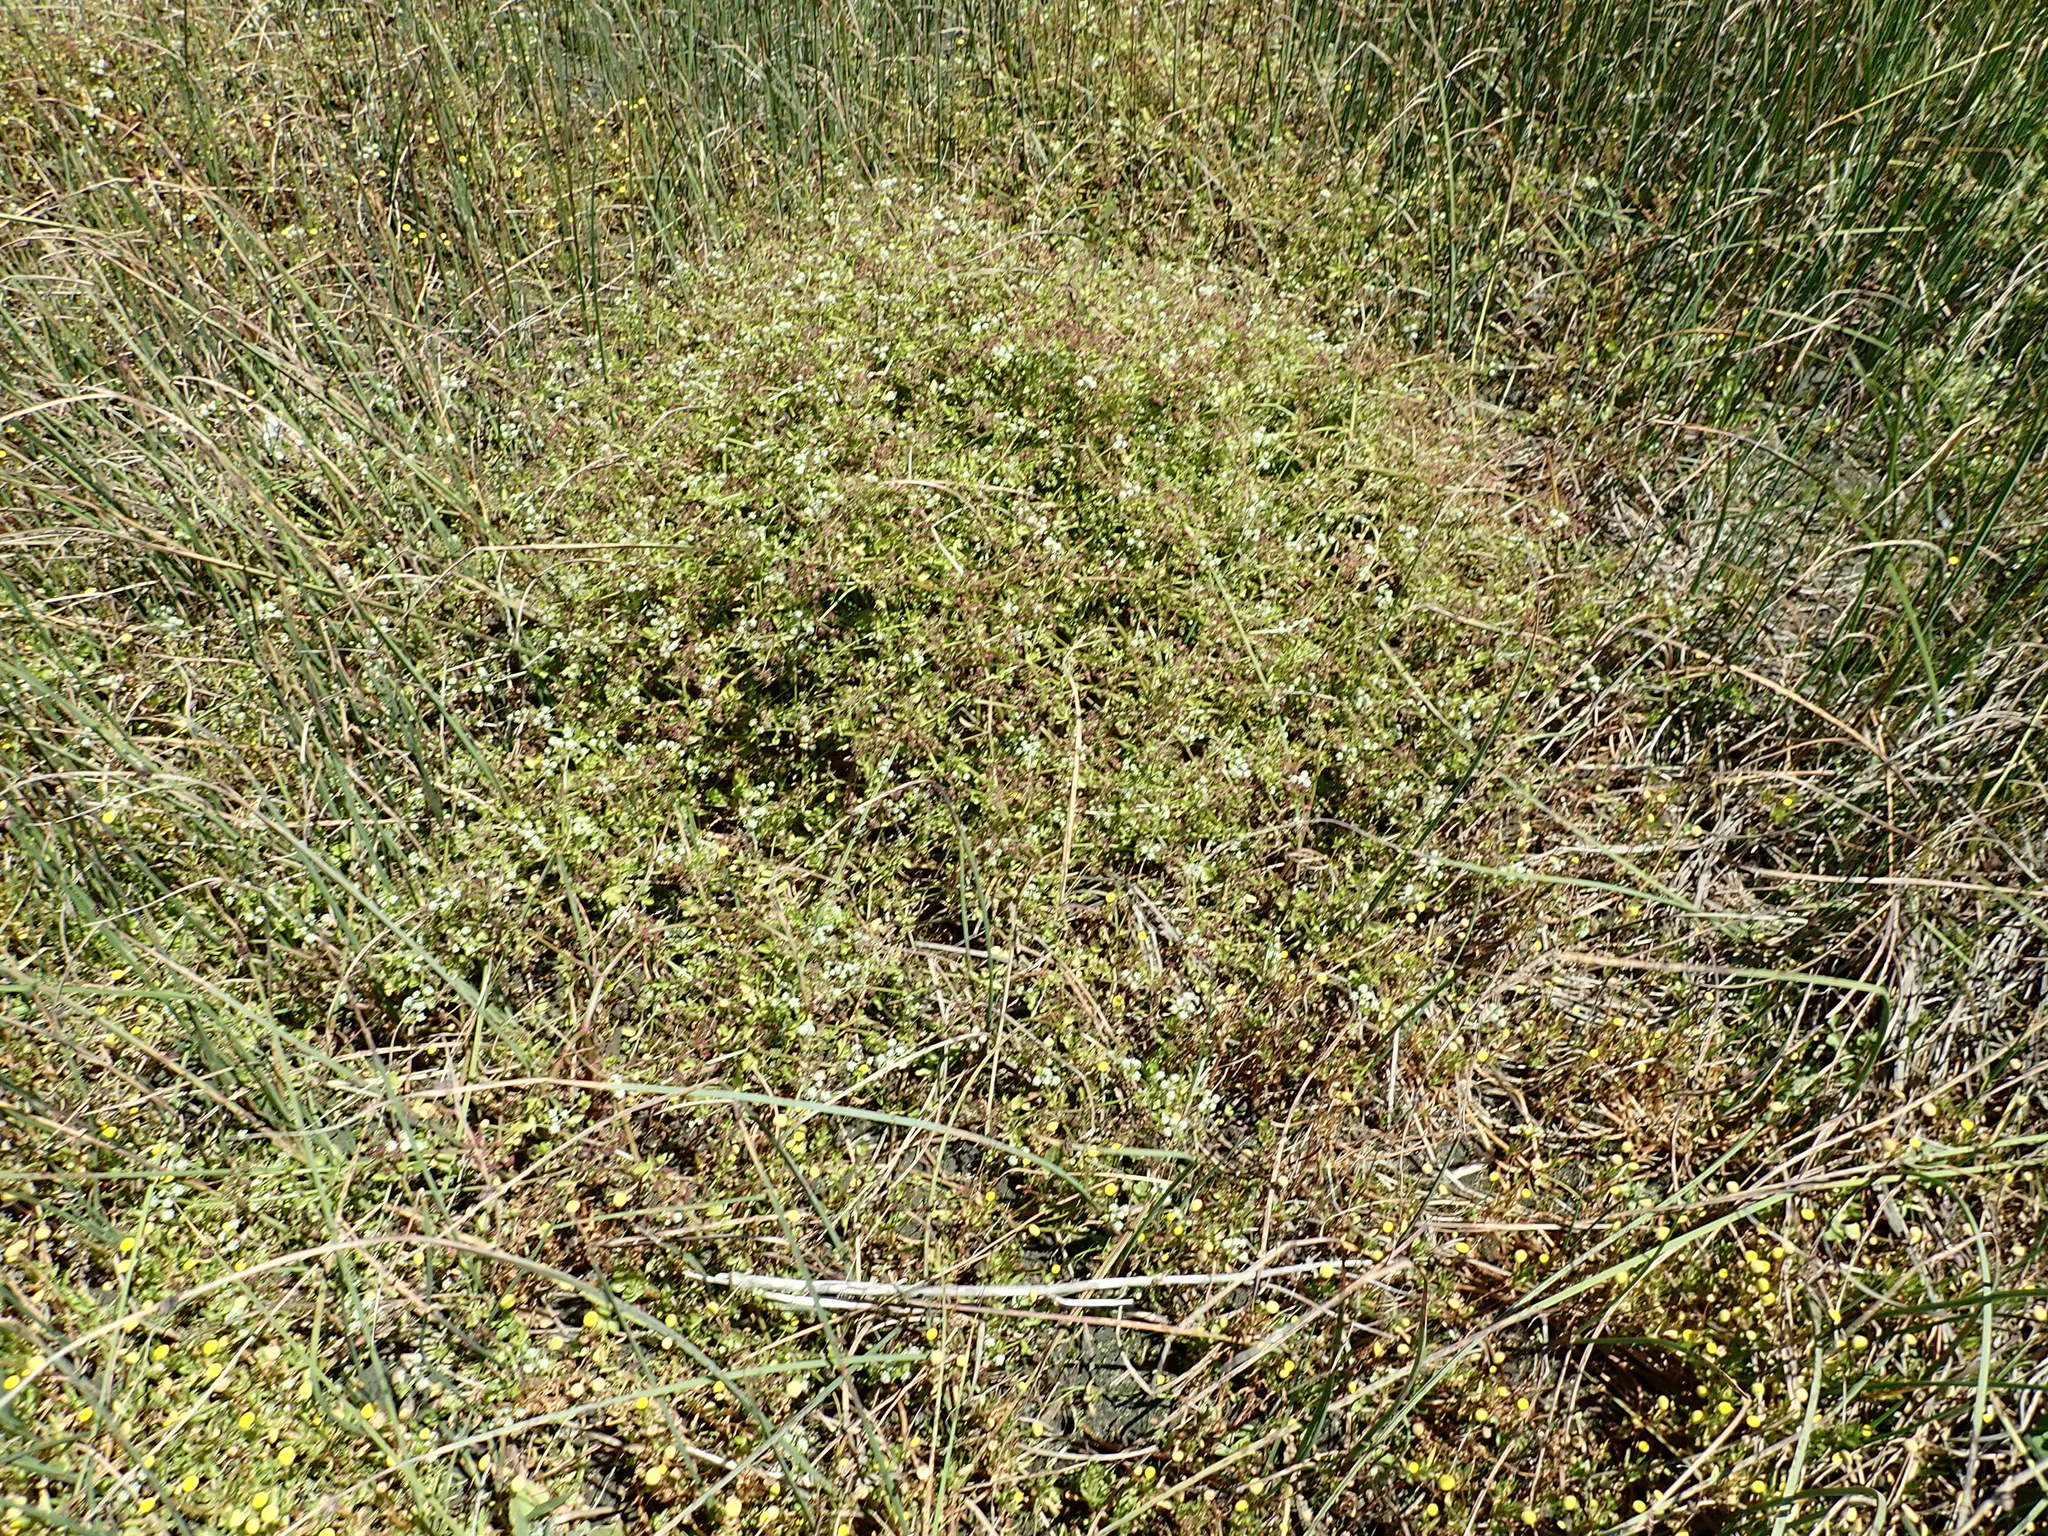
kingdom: Plantae
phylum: Tracheophyta
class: Magnoliopsida
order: Apiales
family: Apiaceae
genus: Apium
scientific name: Apium graveolens
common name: Wild celery
